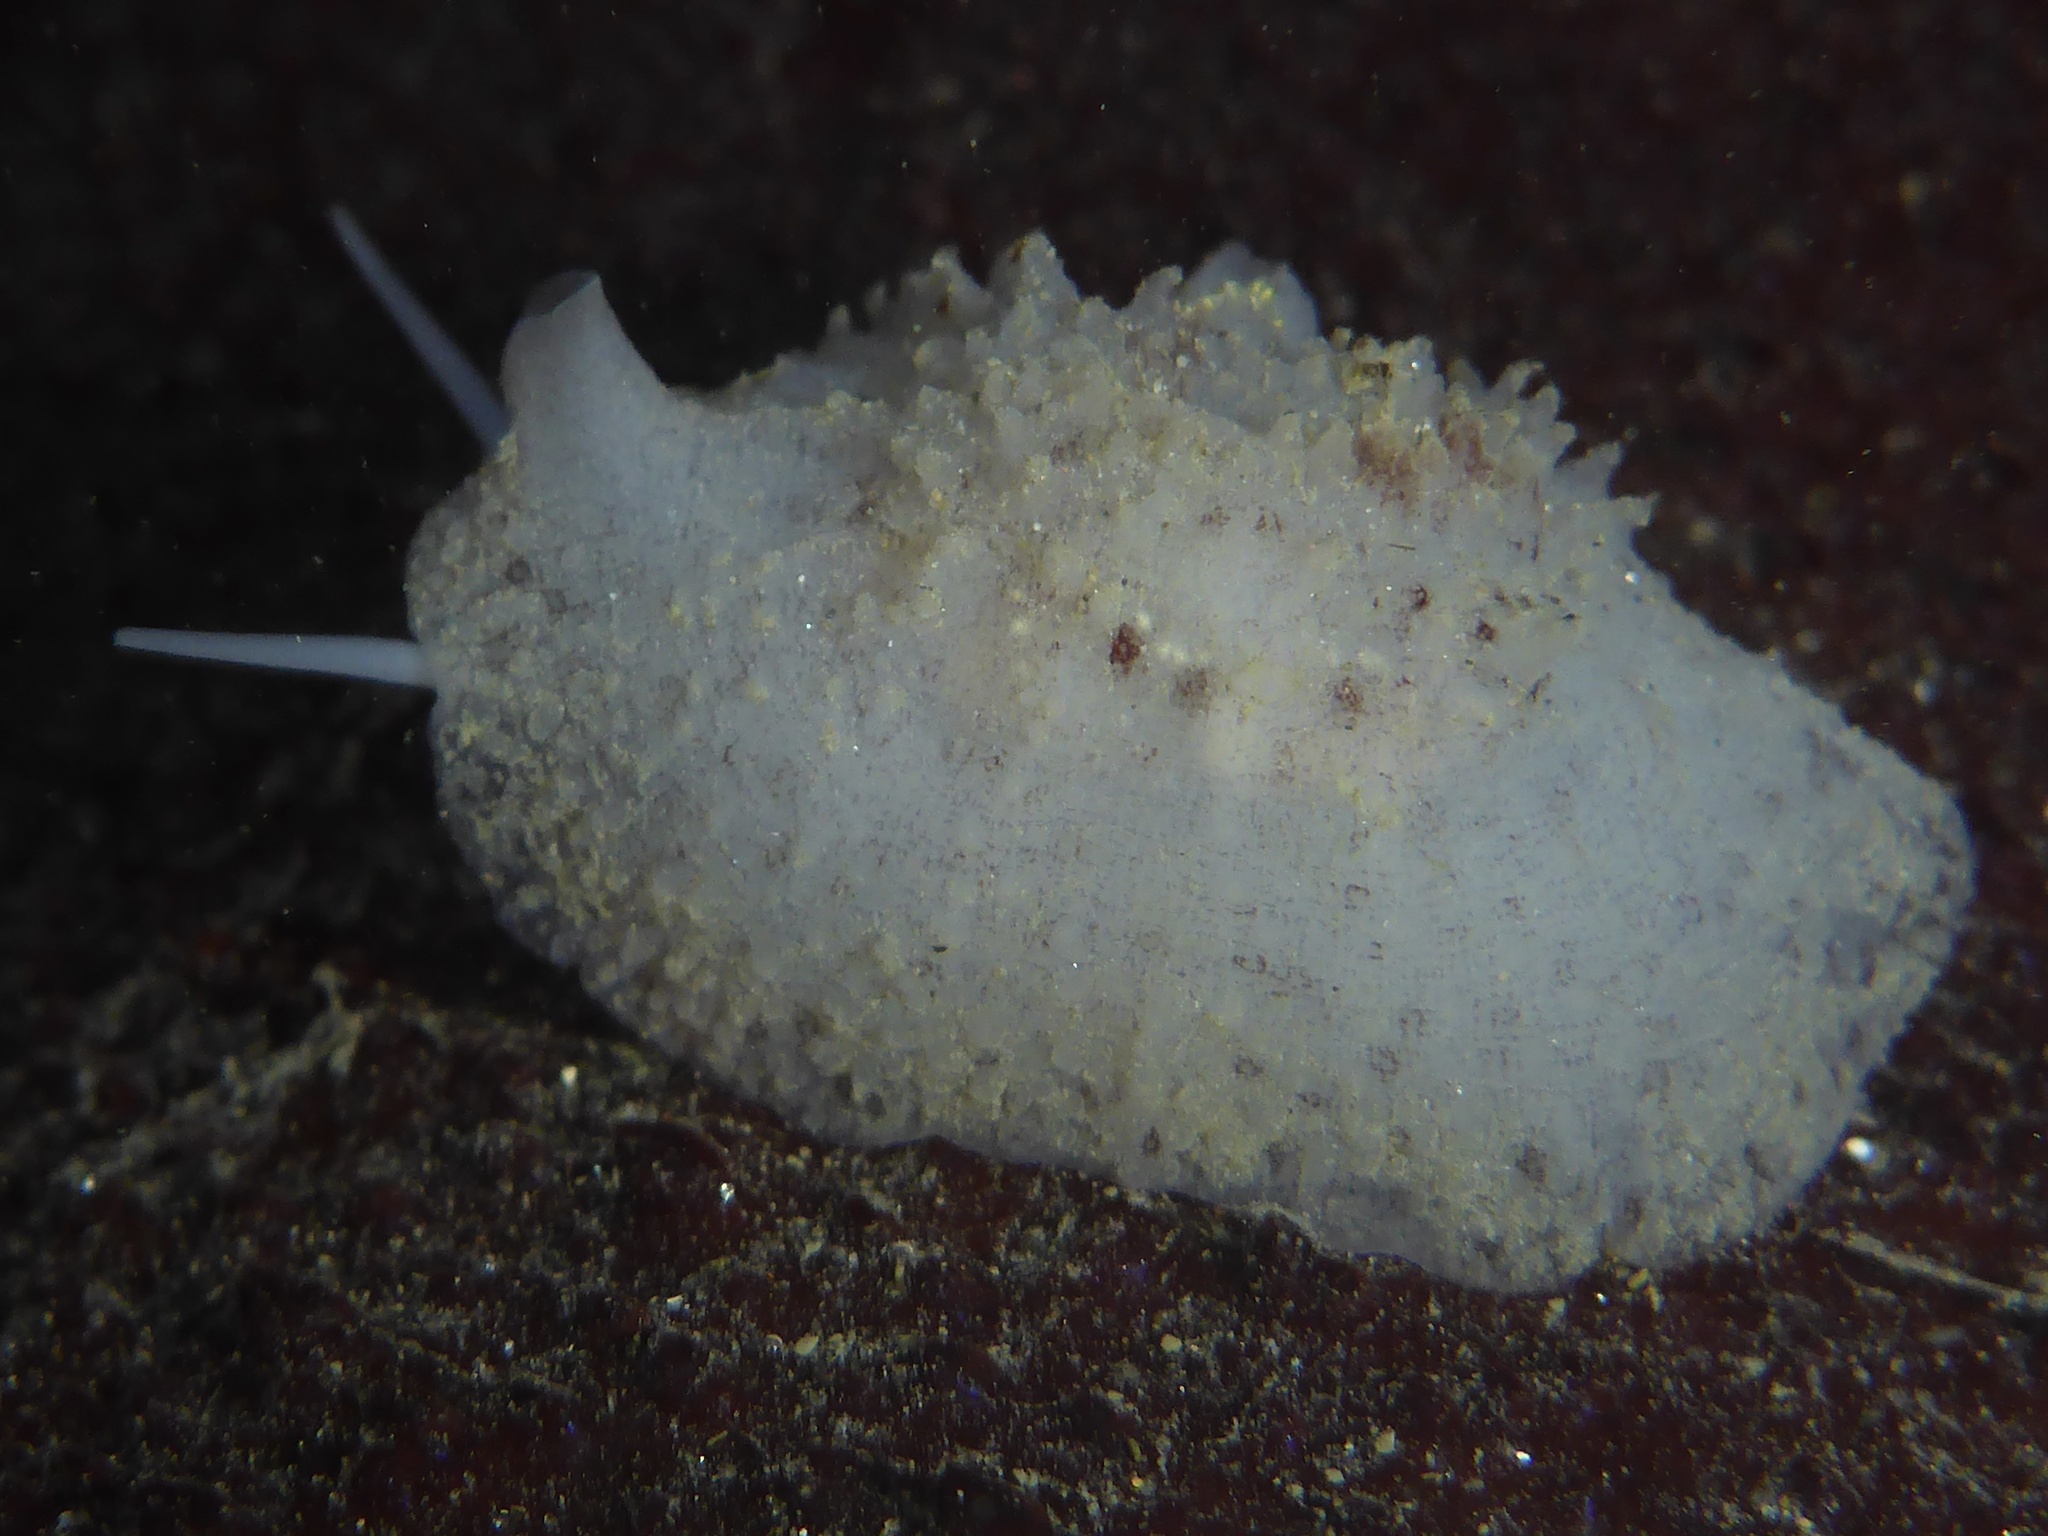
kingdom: Animalia
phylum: Mollusca
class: Gastropoda
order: Littorinimorpha
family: Velutinidae
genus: Marsenina
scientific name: Marsenina rhombica
